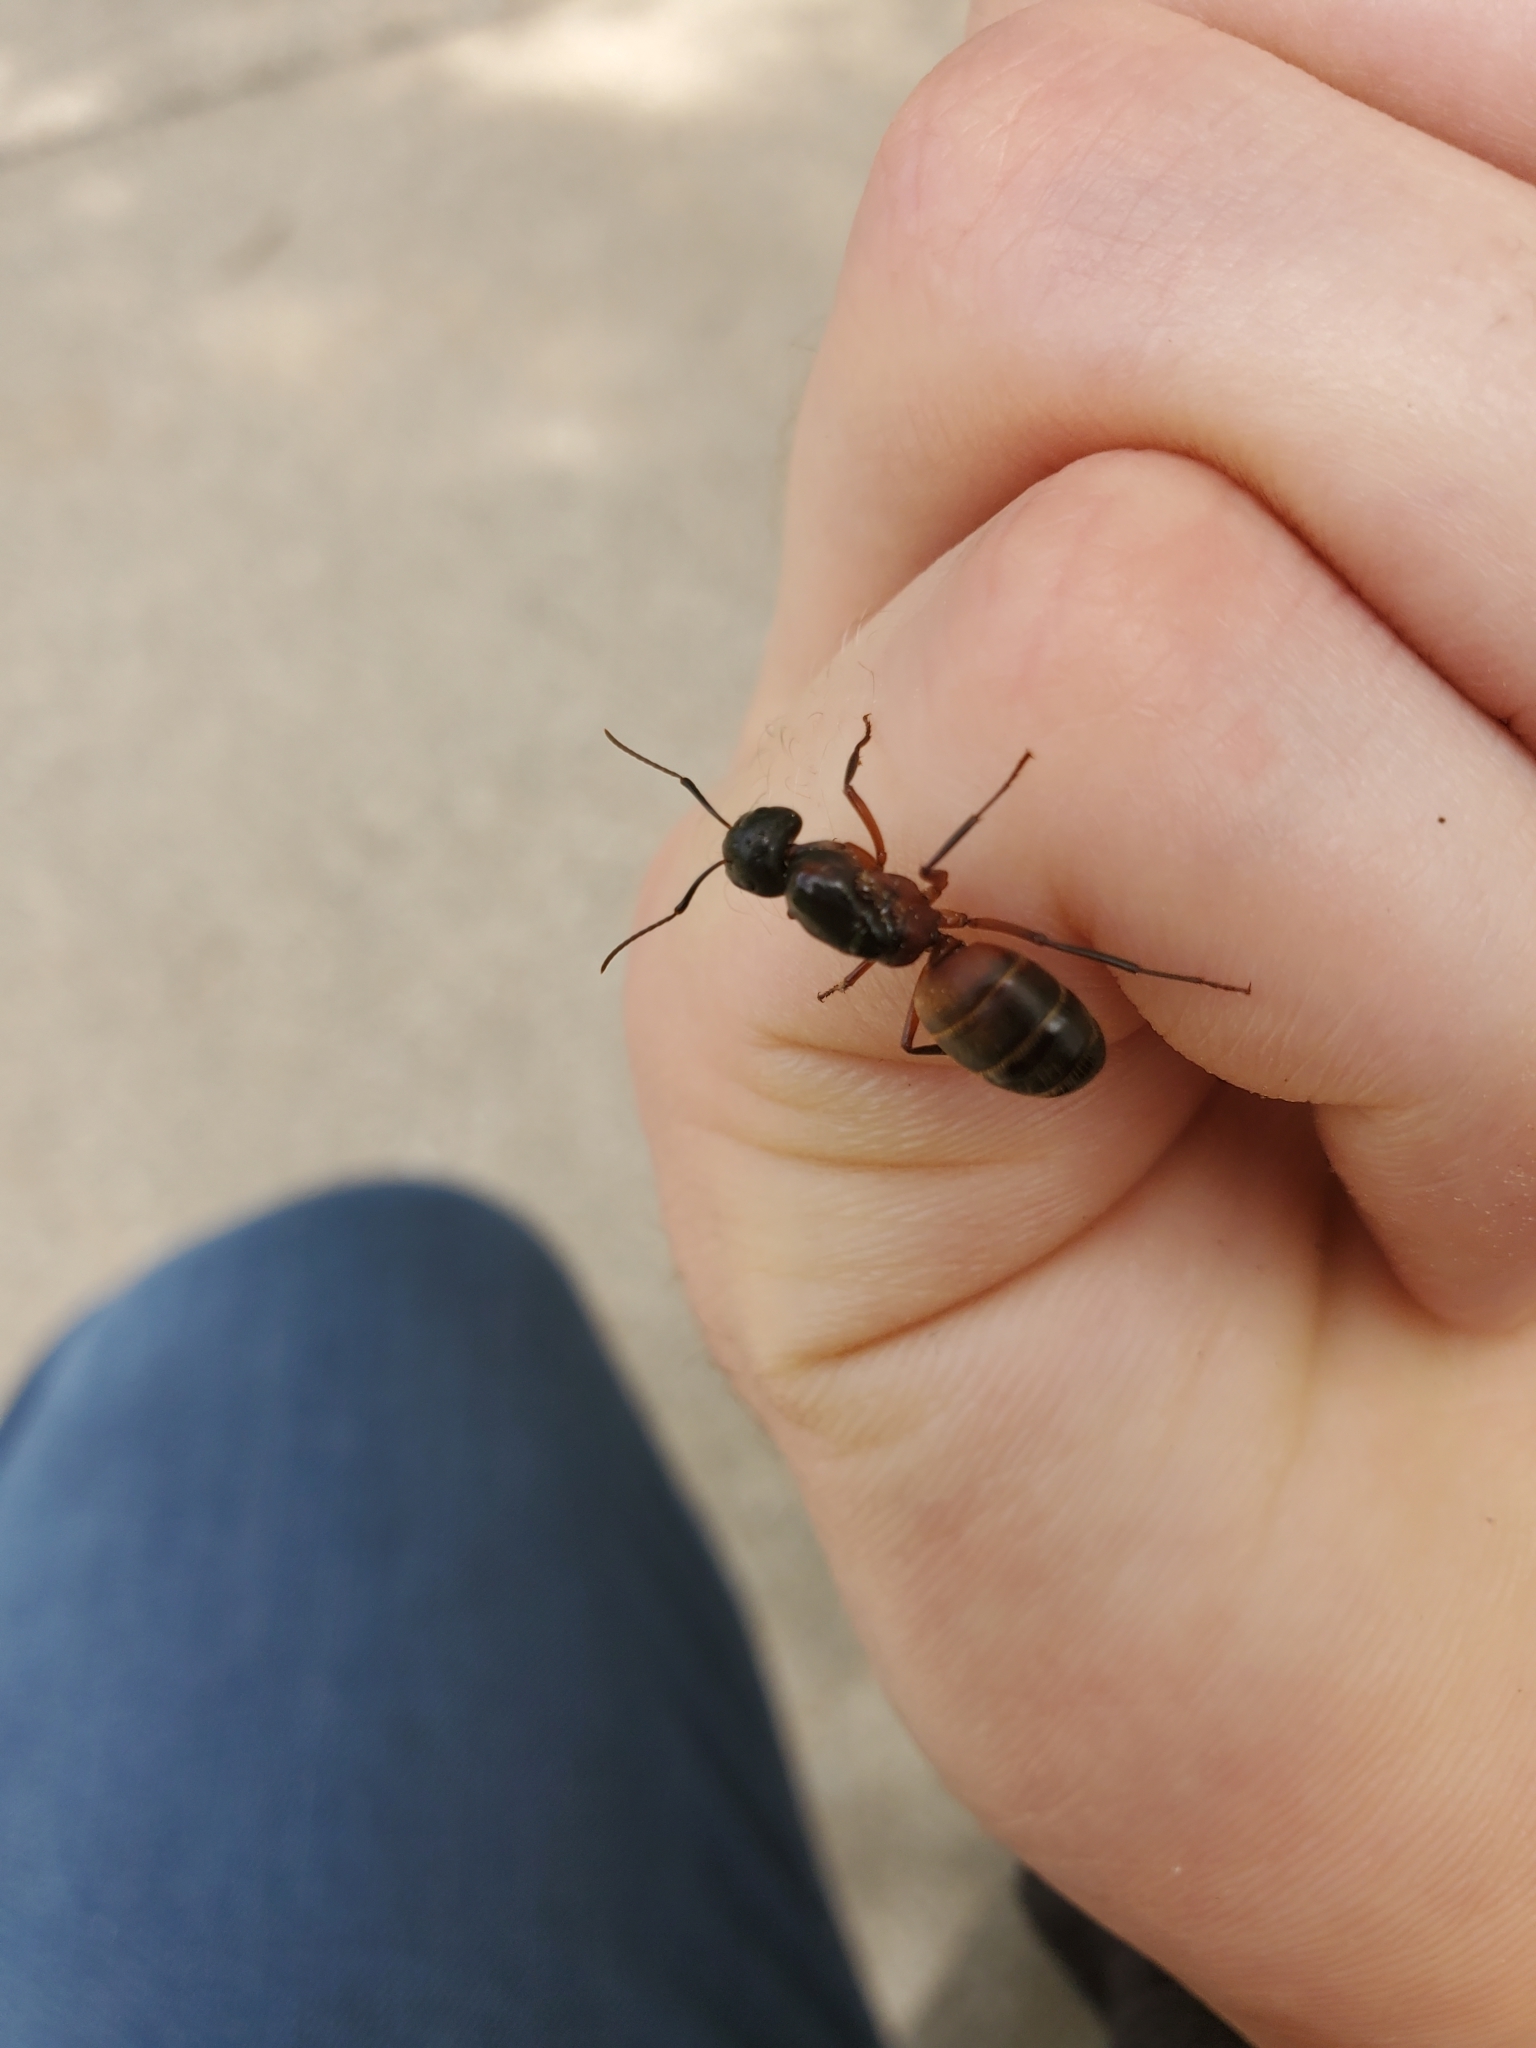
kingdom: Animalia
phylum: Arthropoda
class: Insecta
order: Hymenoptera
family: Formicidae
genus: Camponotus
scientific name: Camponotus chromaiodes
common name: Red carpenter ant
